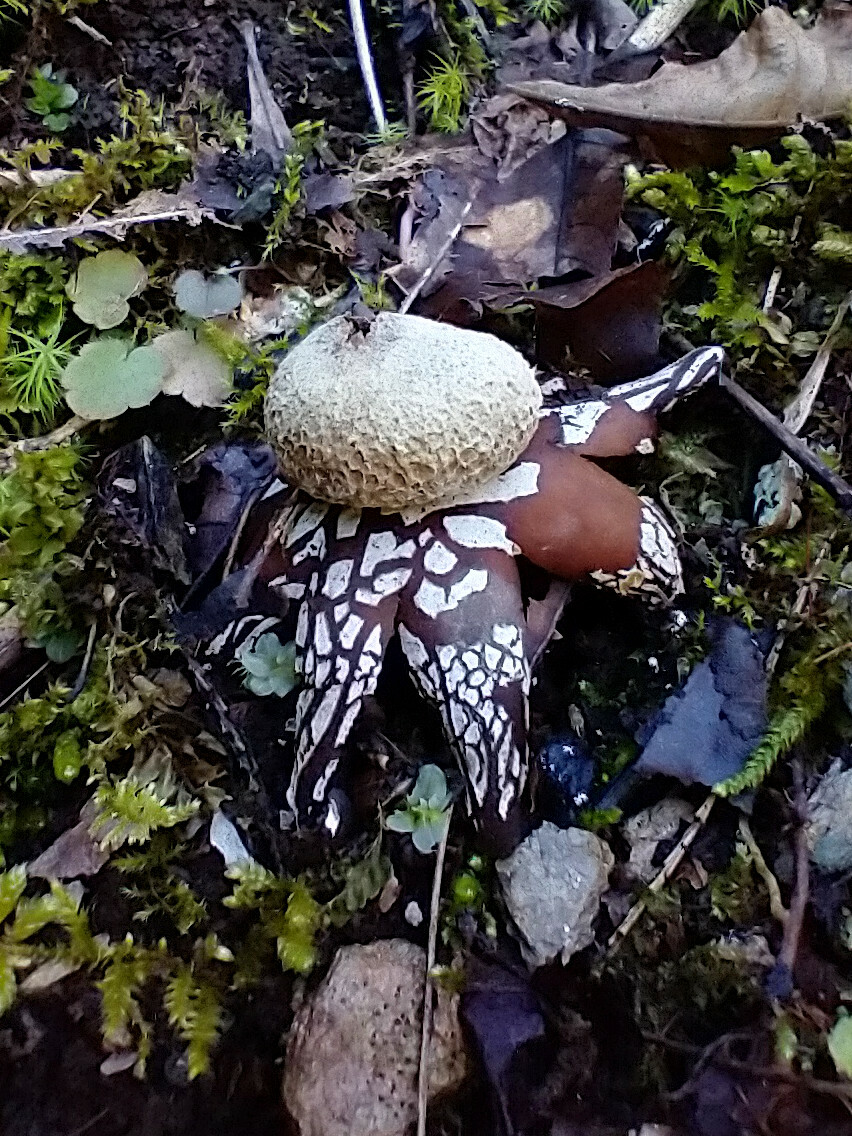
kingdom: Fungi
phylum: Basidiomycota
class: Agaricomycetes
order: Boletales
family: Diplocystidiaceae
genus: Astraeus
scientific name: Astraeus hygrometricus
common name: Barometer earthstar
